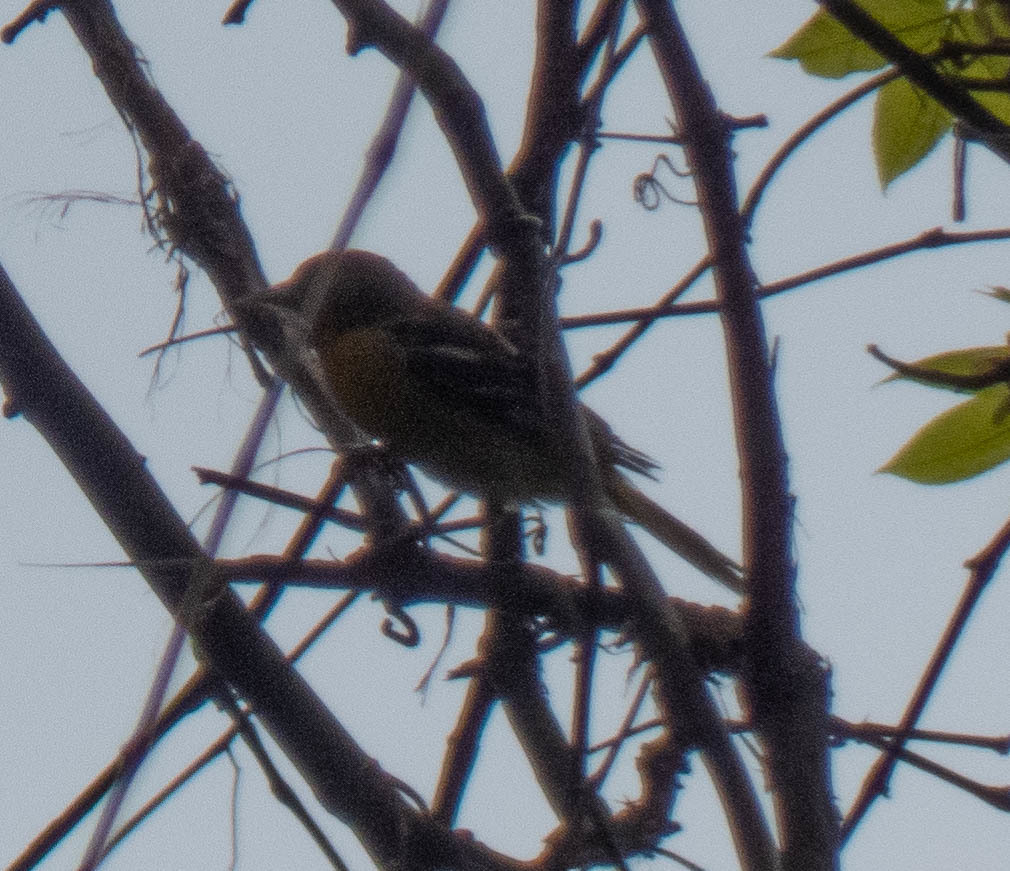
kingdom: Animalia
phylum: Chordata
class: Aves
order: Passeriformes
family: Icteridae
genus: Icterus
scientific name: Icterus galbula
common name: Baltimore oriole
